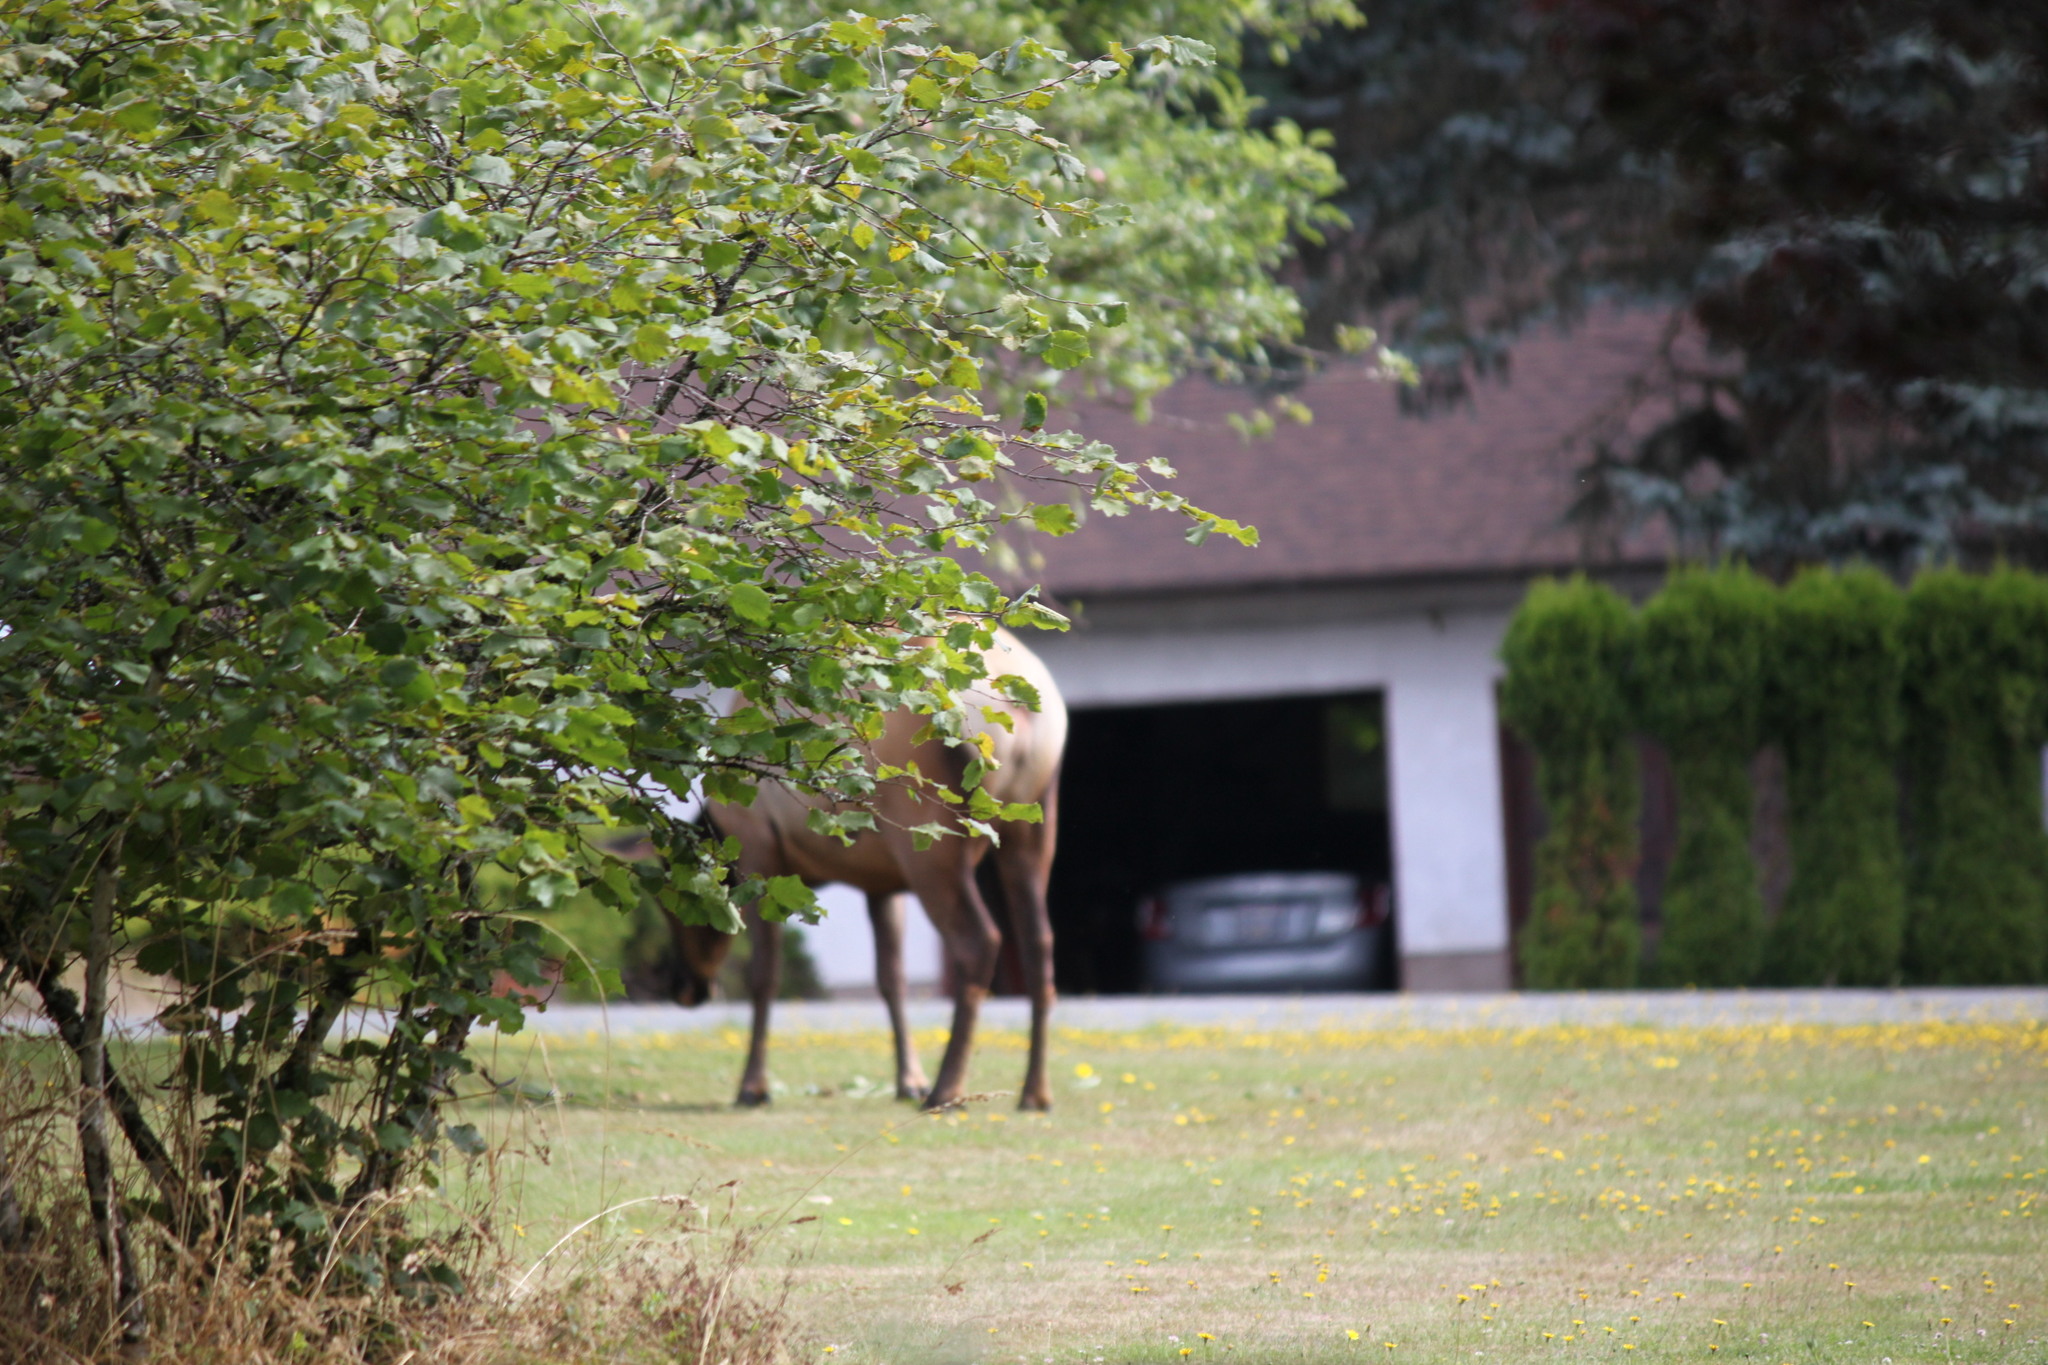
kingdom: Animalia
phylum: Chordata
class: Mammalia
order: Artiodactyla
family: Cervidae
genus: Cervus
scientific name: Cervus elaphus
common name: Red deer
